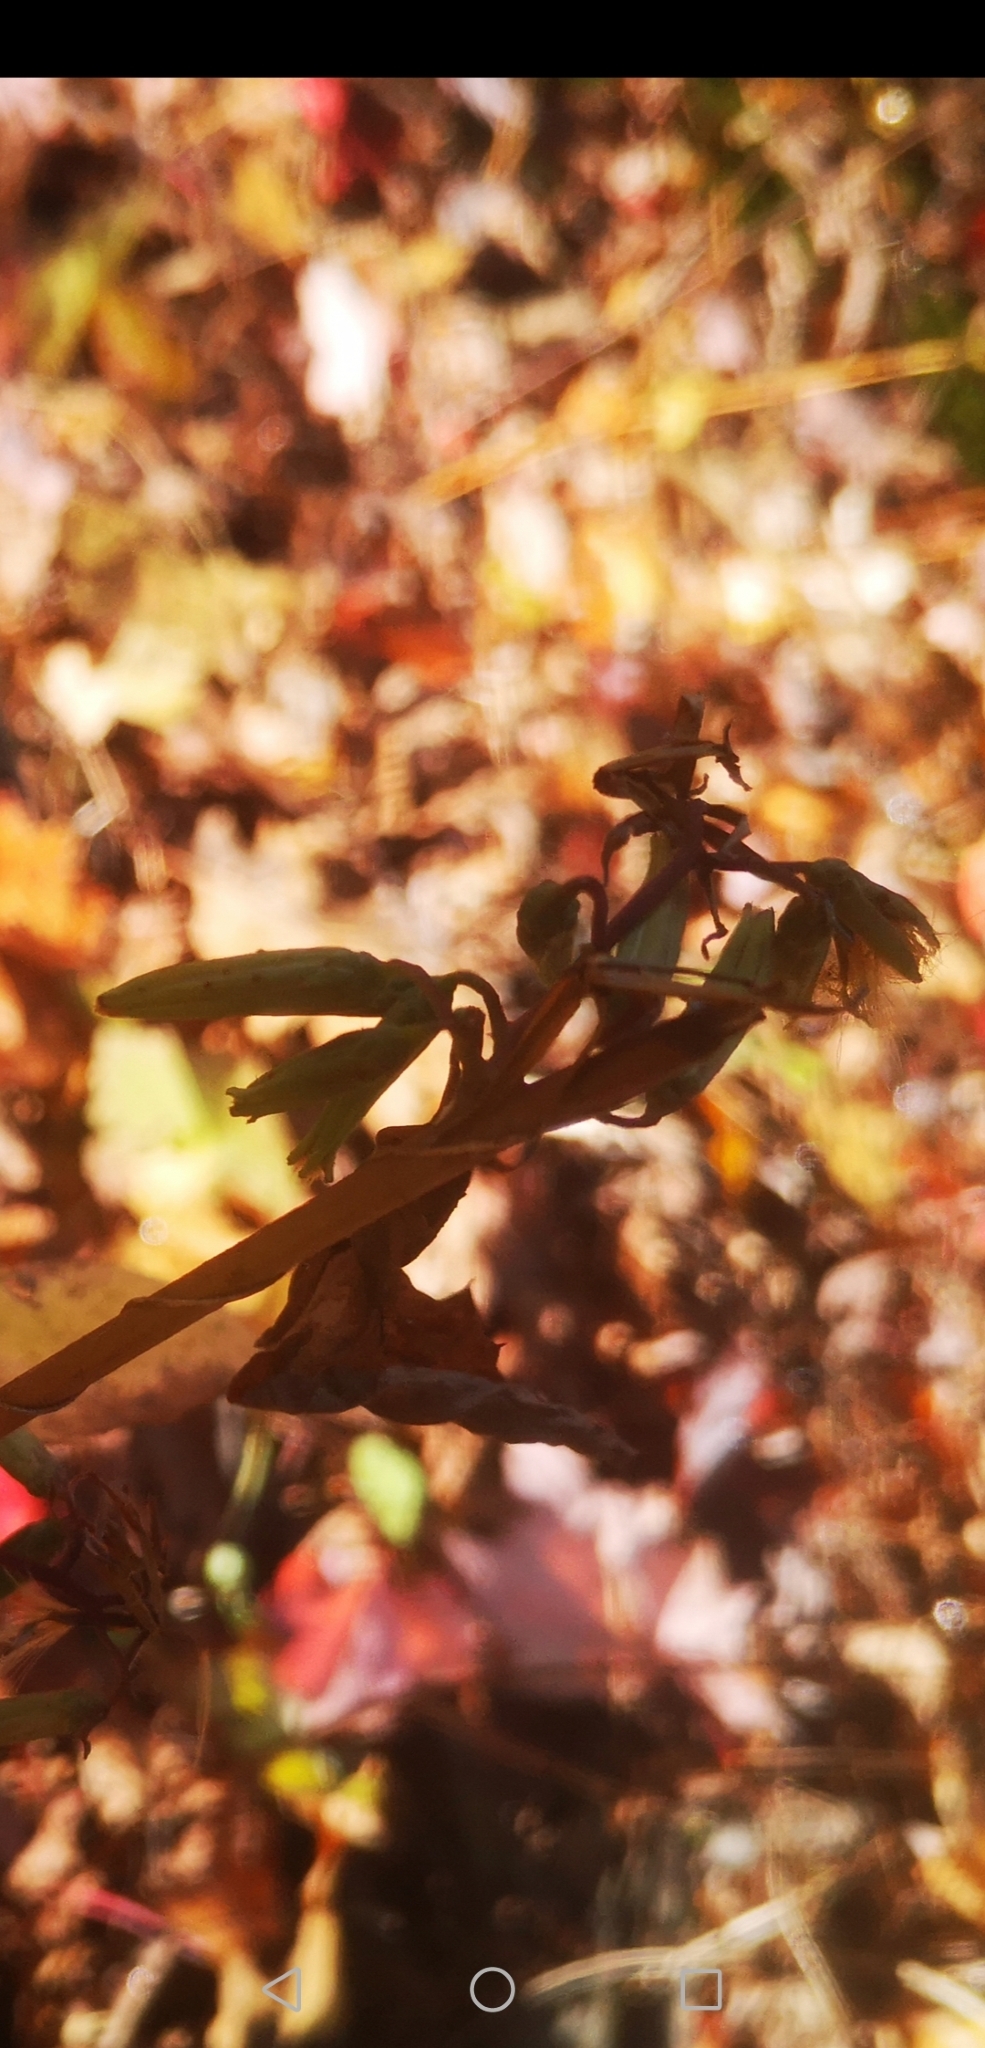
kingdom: Plantae
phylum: Tracheophyta
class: Magnoliopsida
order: Asterales
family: Asteraceae
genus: Nabalus
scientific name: Nabalus altissima
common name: Tall rattlesnakeroot
